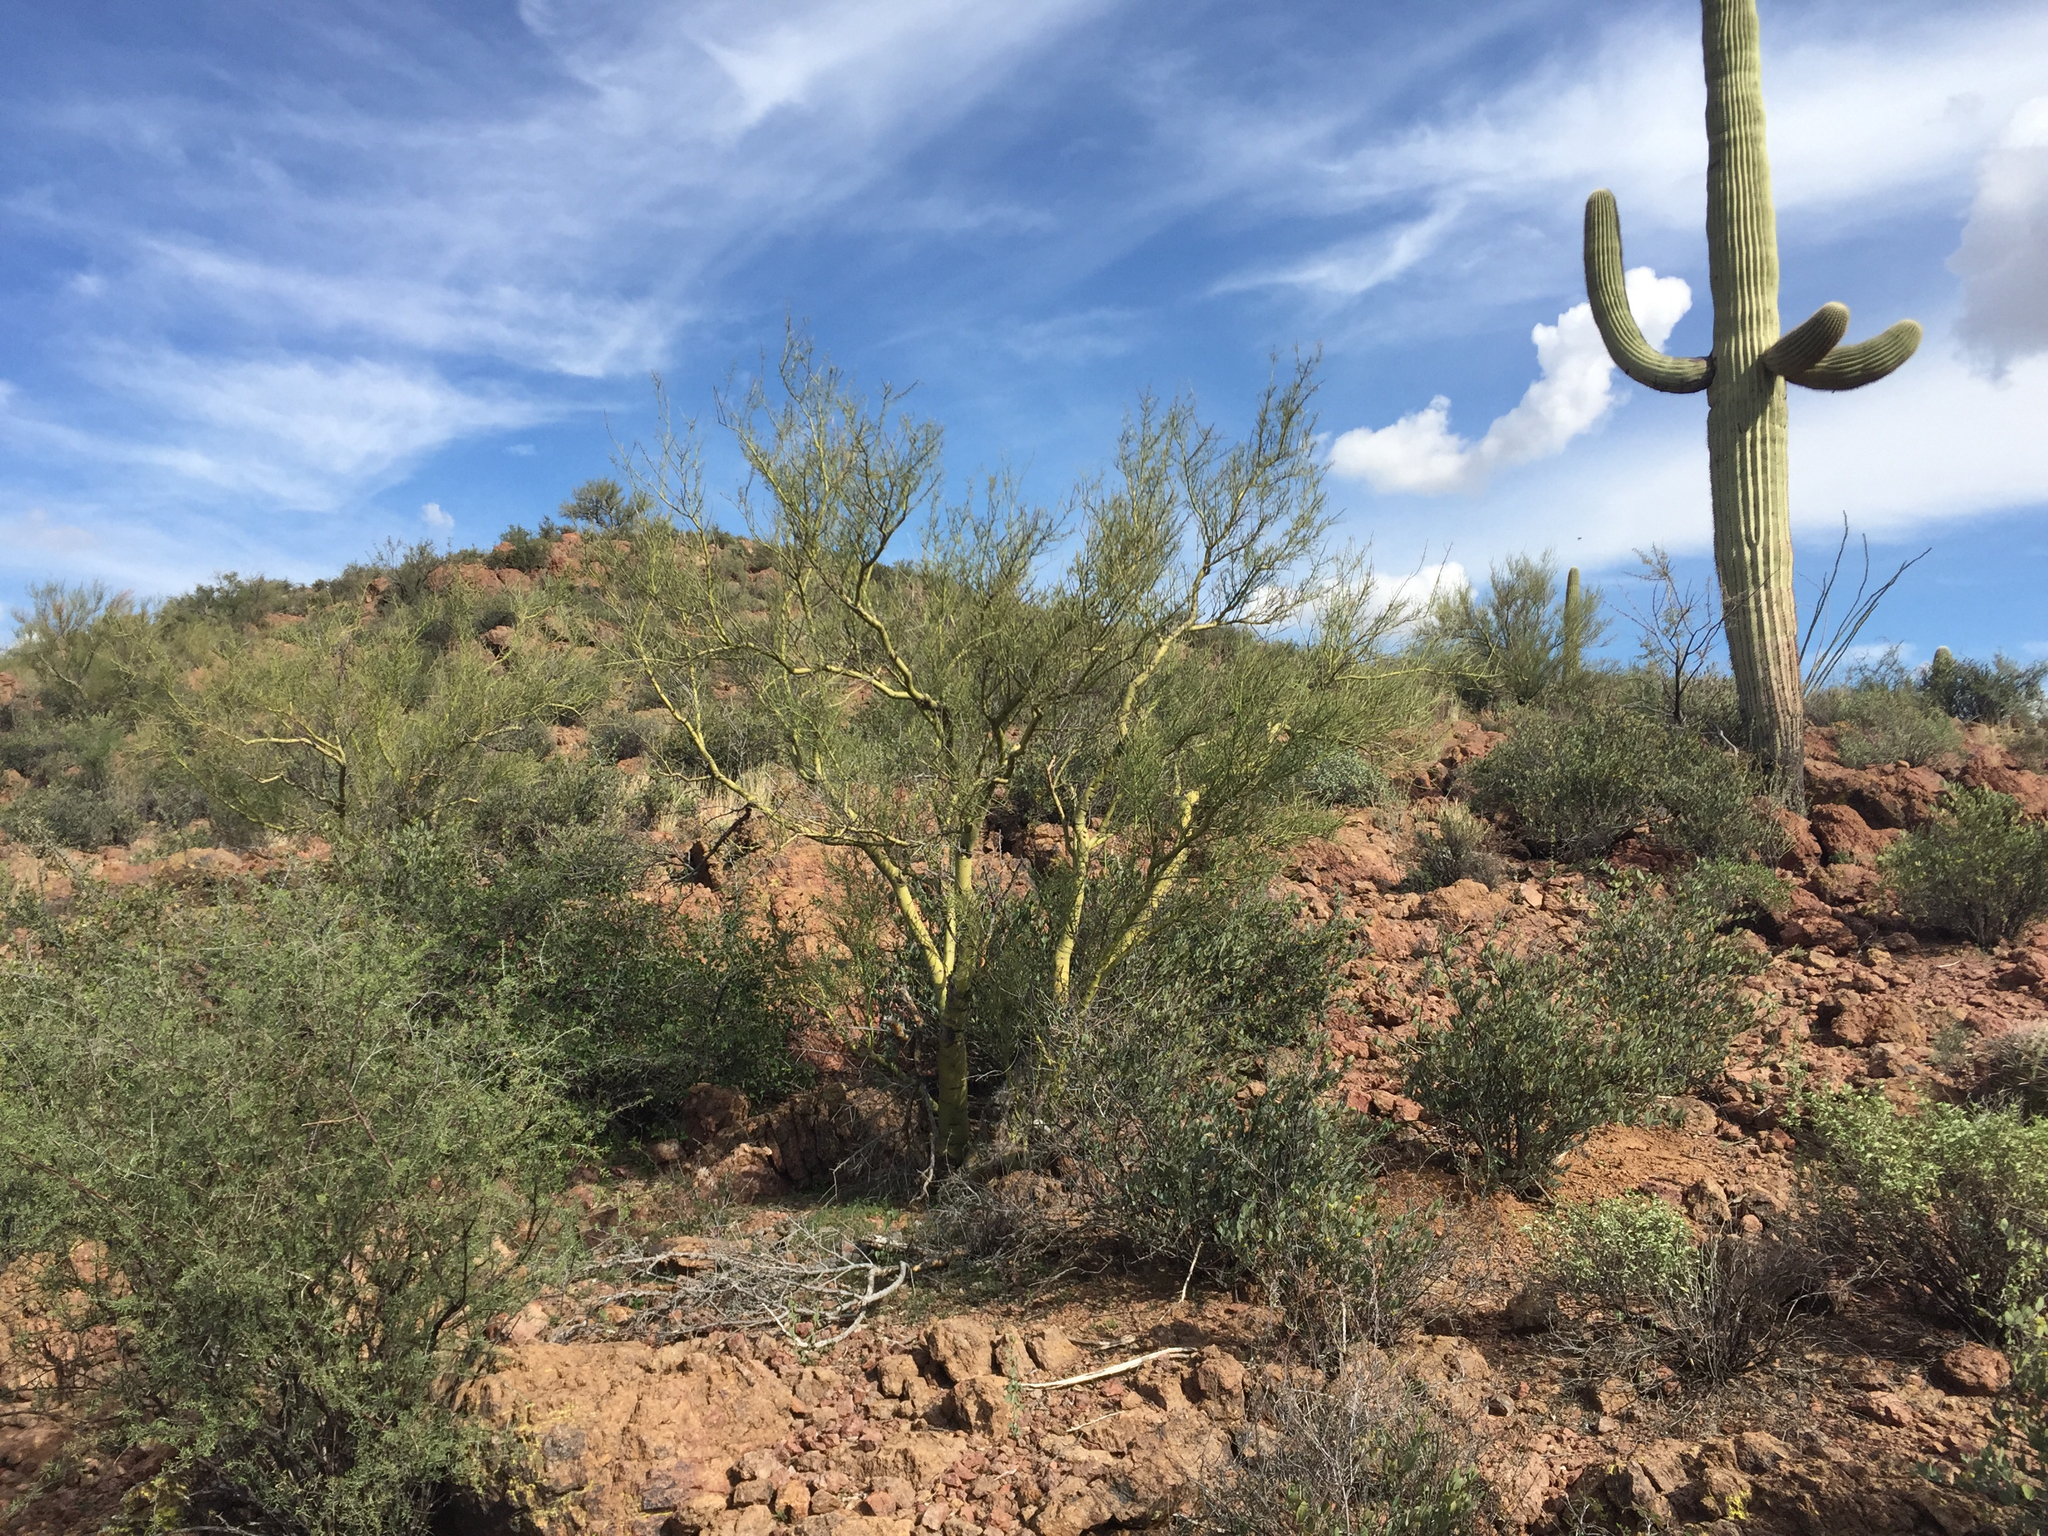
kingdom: Plantae
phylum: Tracheophyta
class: Magnoliopsida
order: Fabales
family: Fabaceae
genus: Parkinsonia
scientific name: Parkinsonia microphylla
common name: Yellow paloverde
